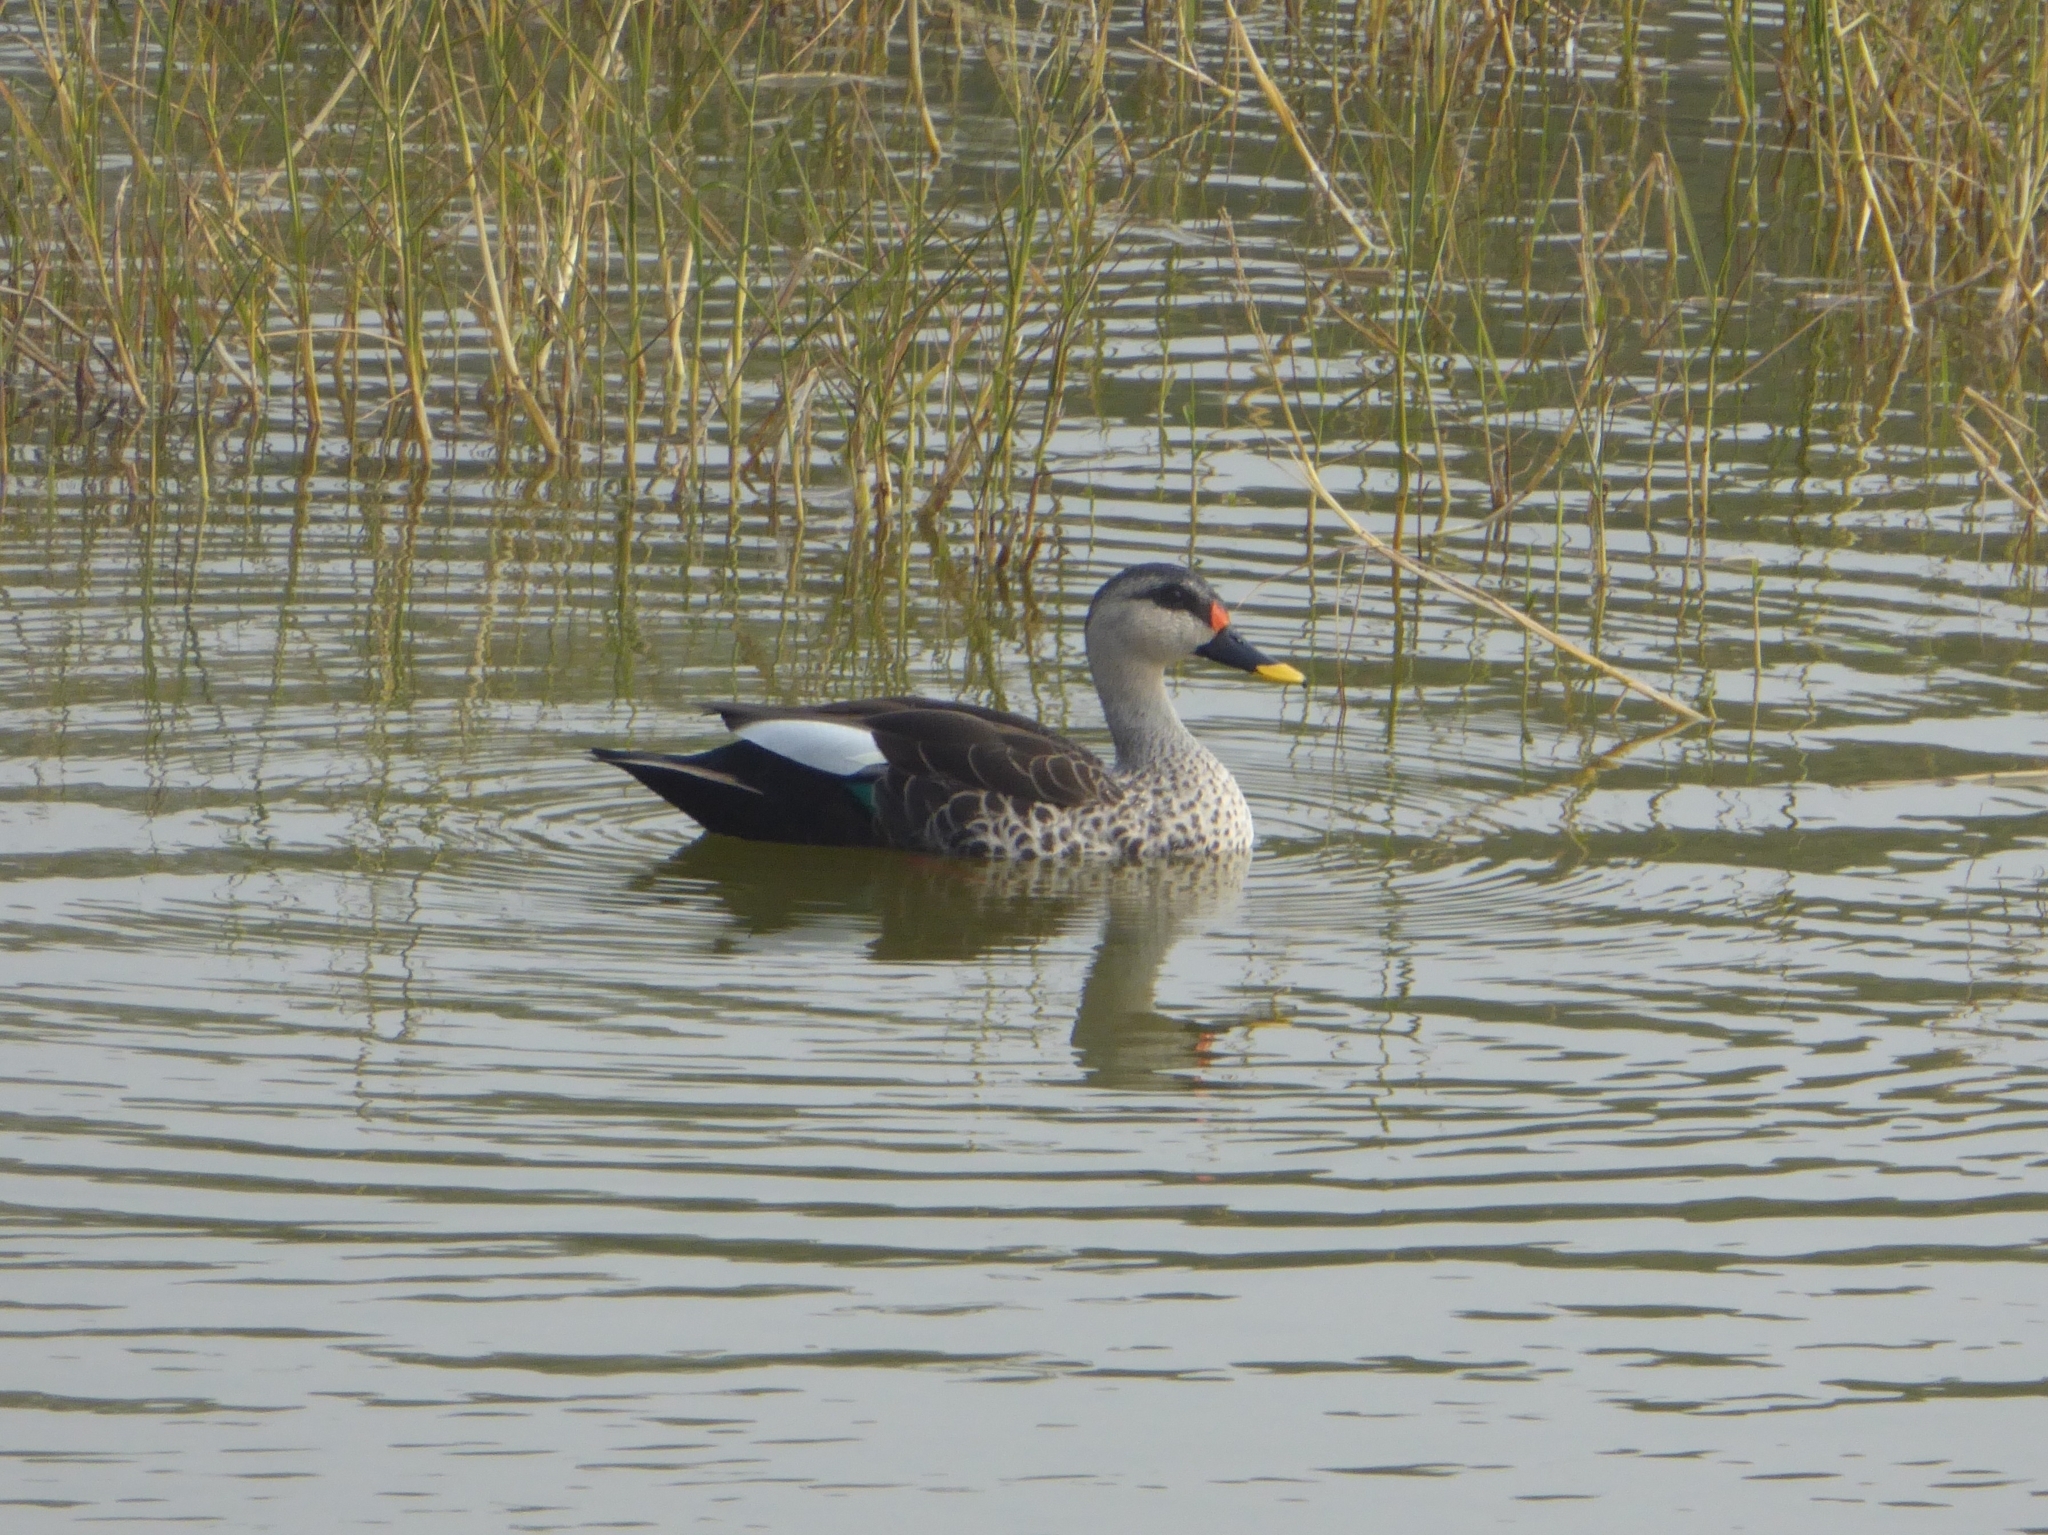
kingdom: Animalia
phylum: Chordata
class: Aves
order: Anseriformes
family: Anatidae
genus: Anas
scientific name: Anas poecilorhyncha
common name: Indian spot-billed duck
